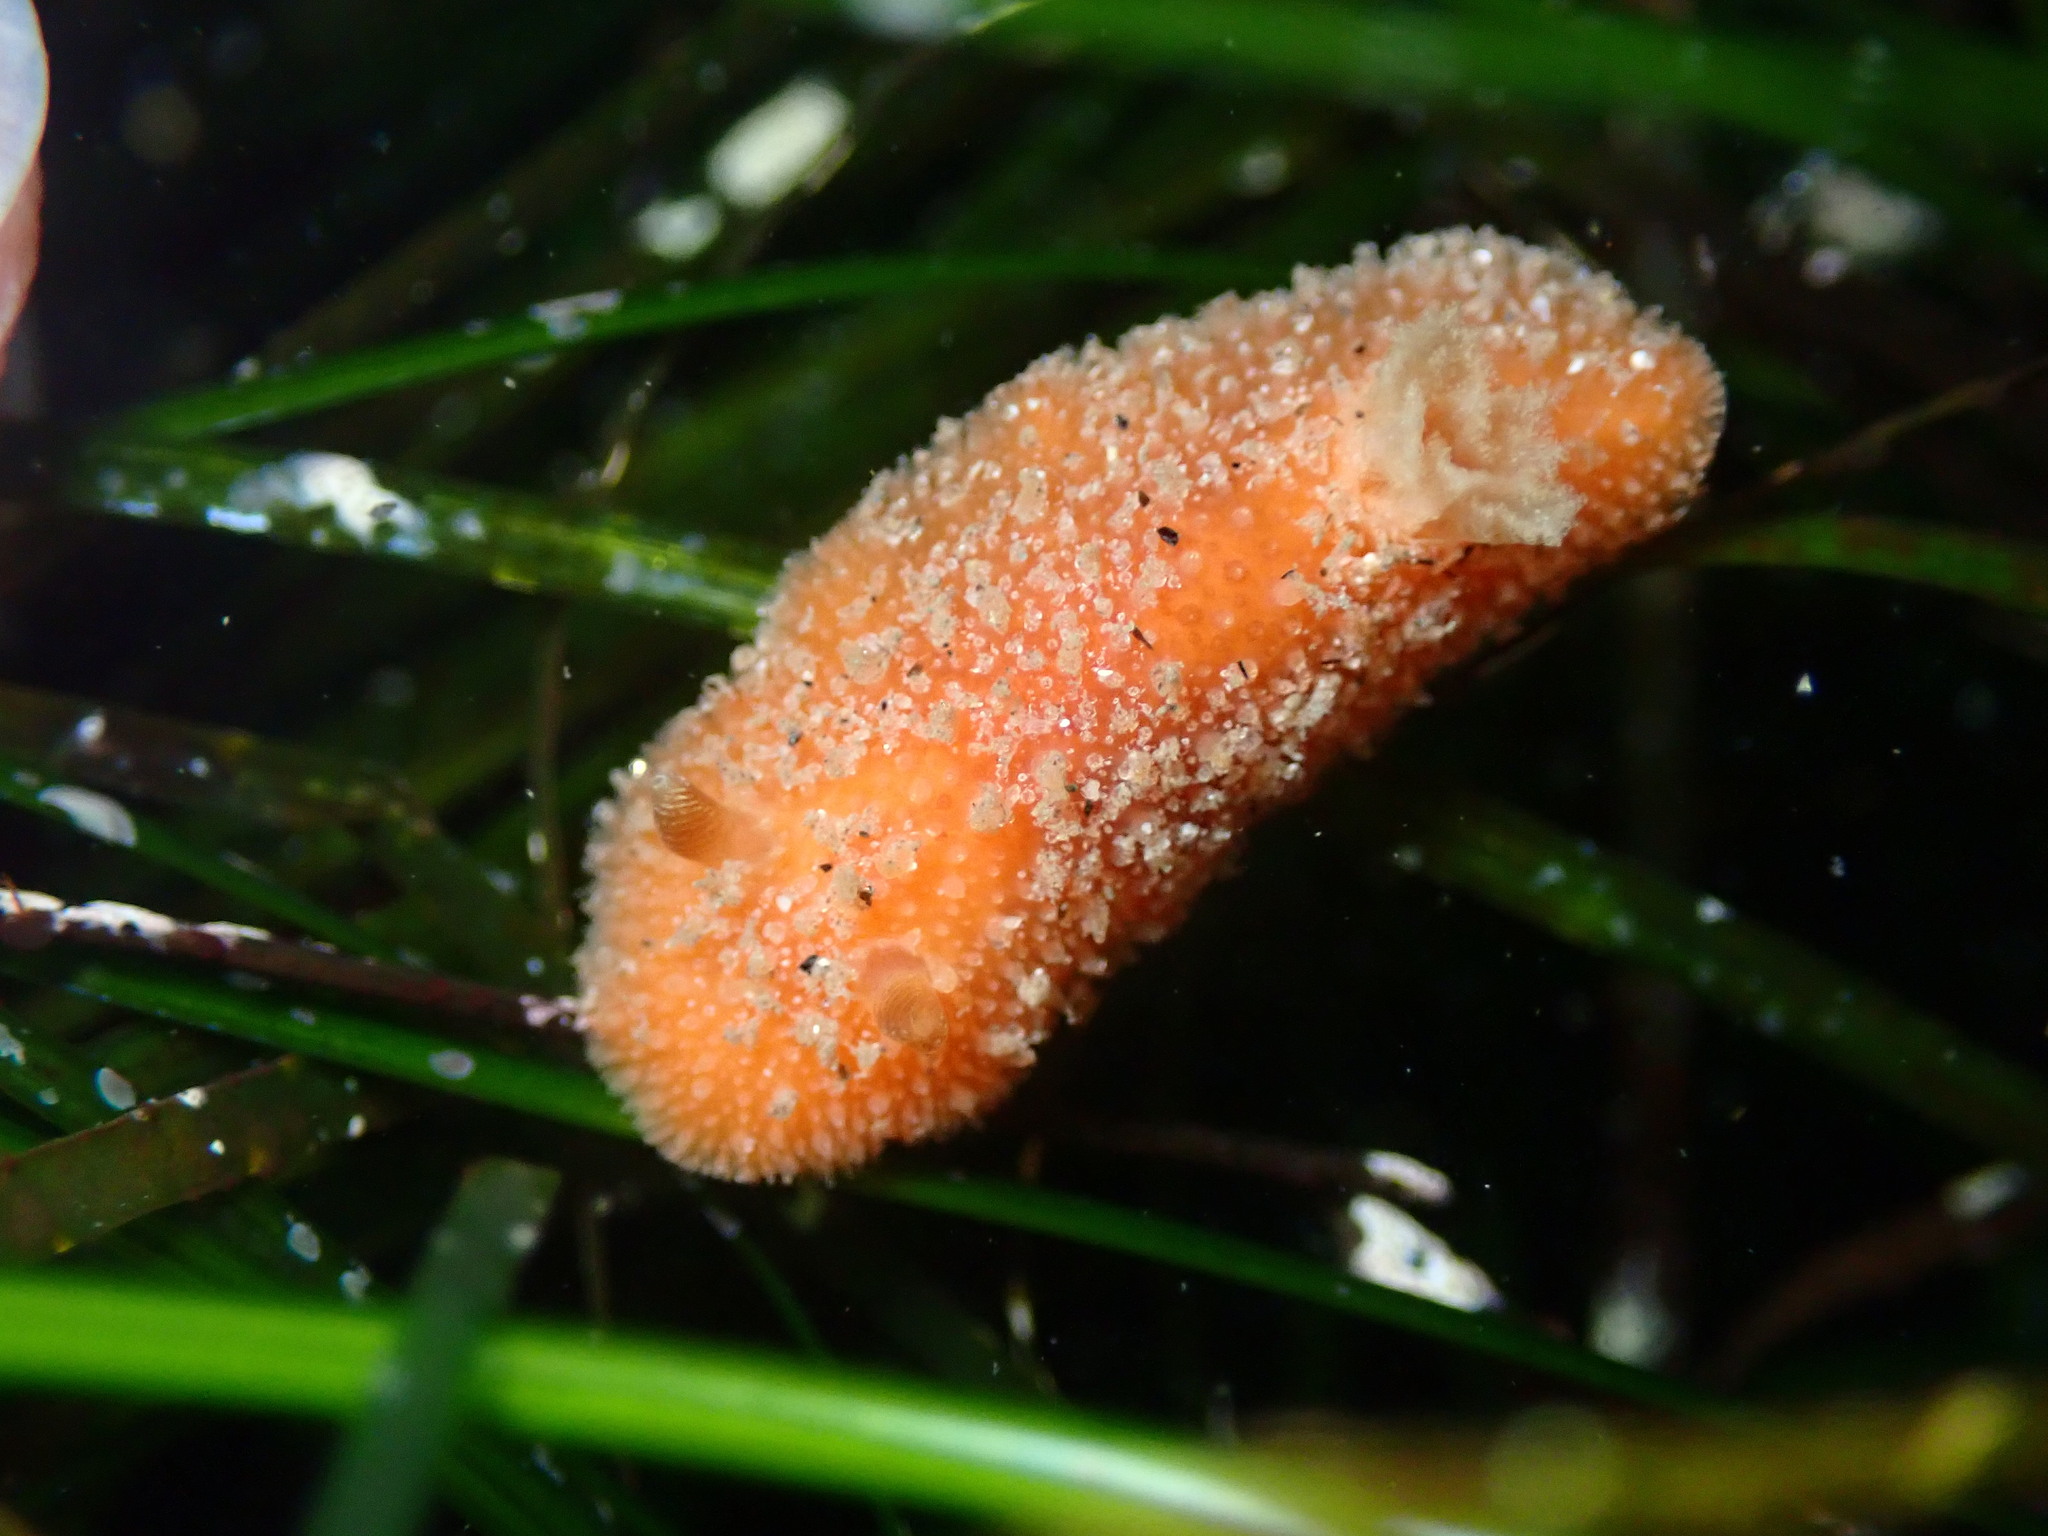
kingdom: Animalia
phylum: Mollusca
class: Gastropoda
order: Nudibranchia
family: Discodorididae
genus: Thordisa
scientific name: Thordisa bimaculata
